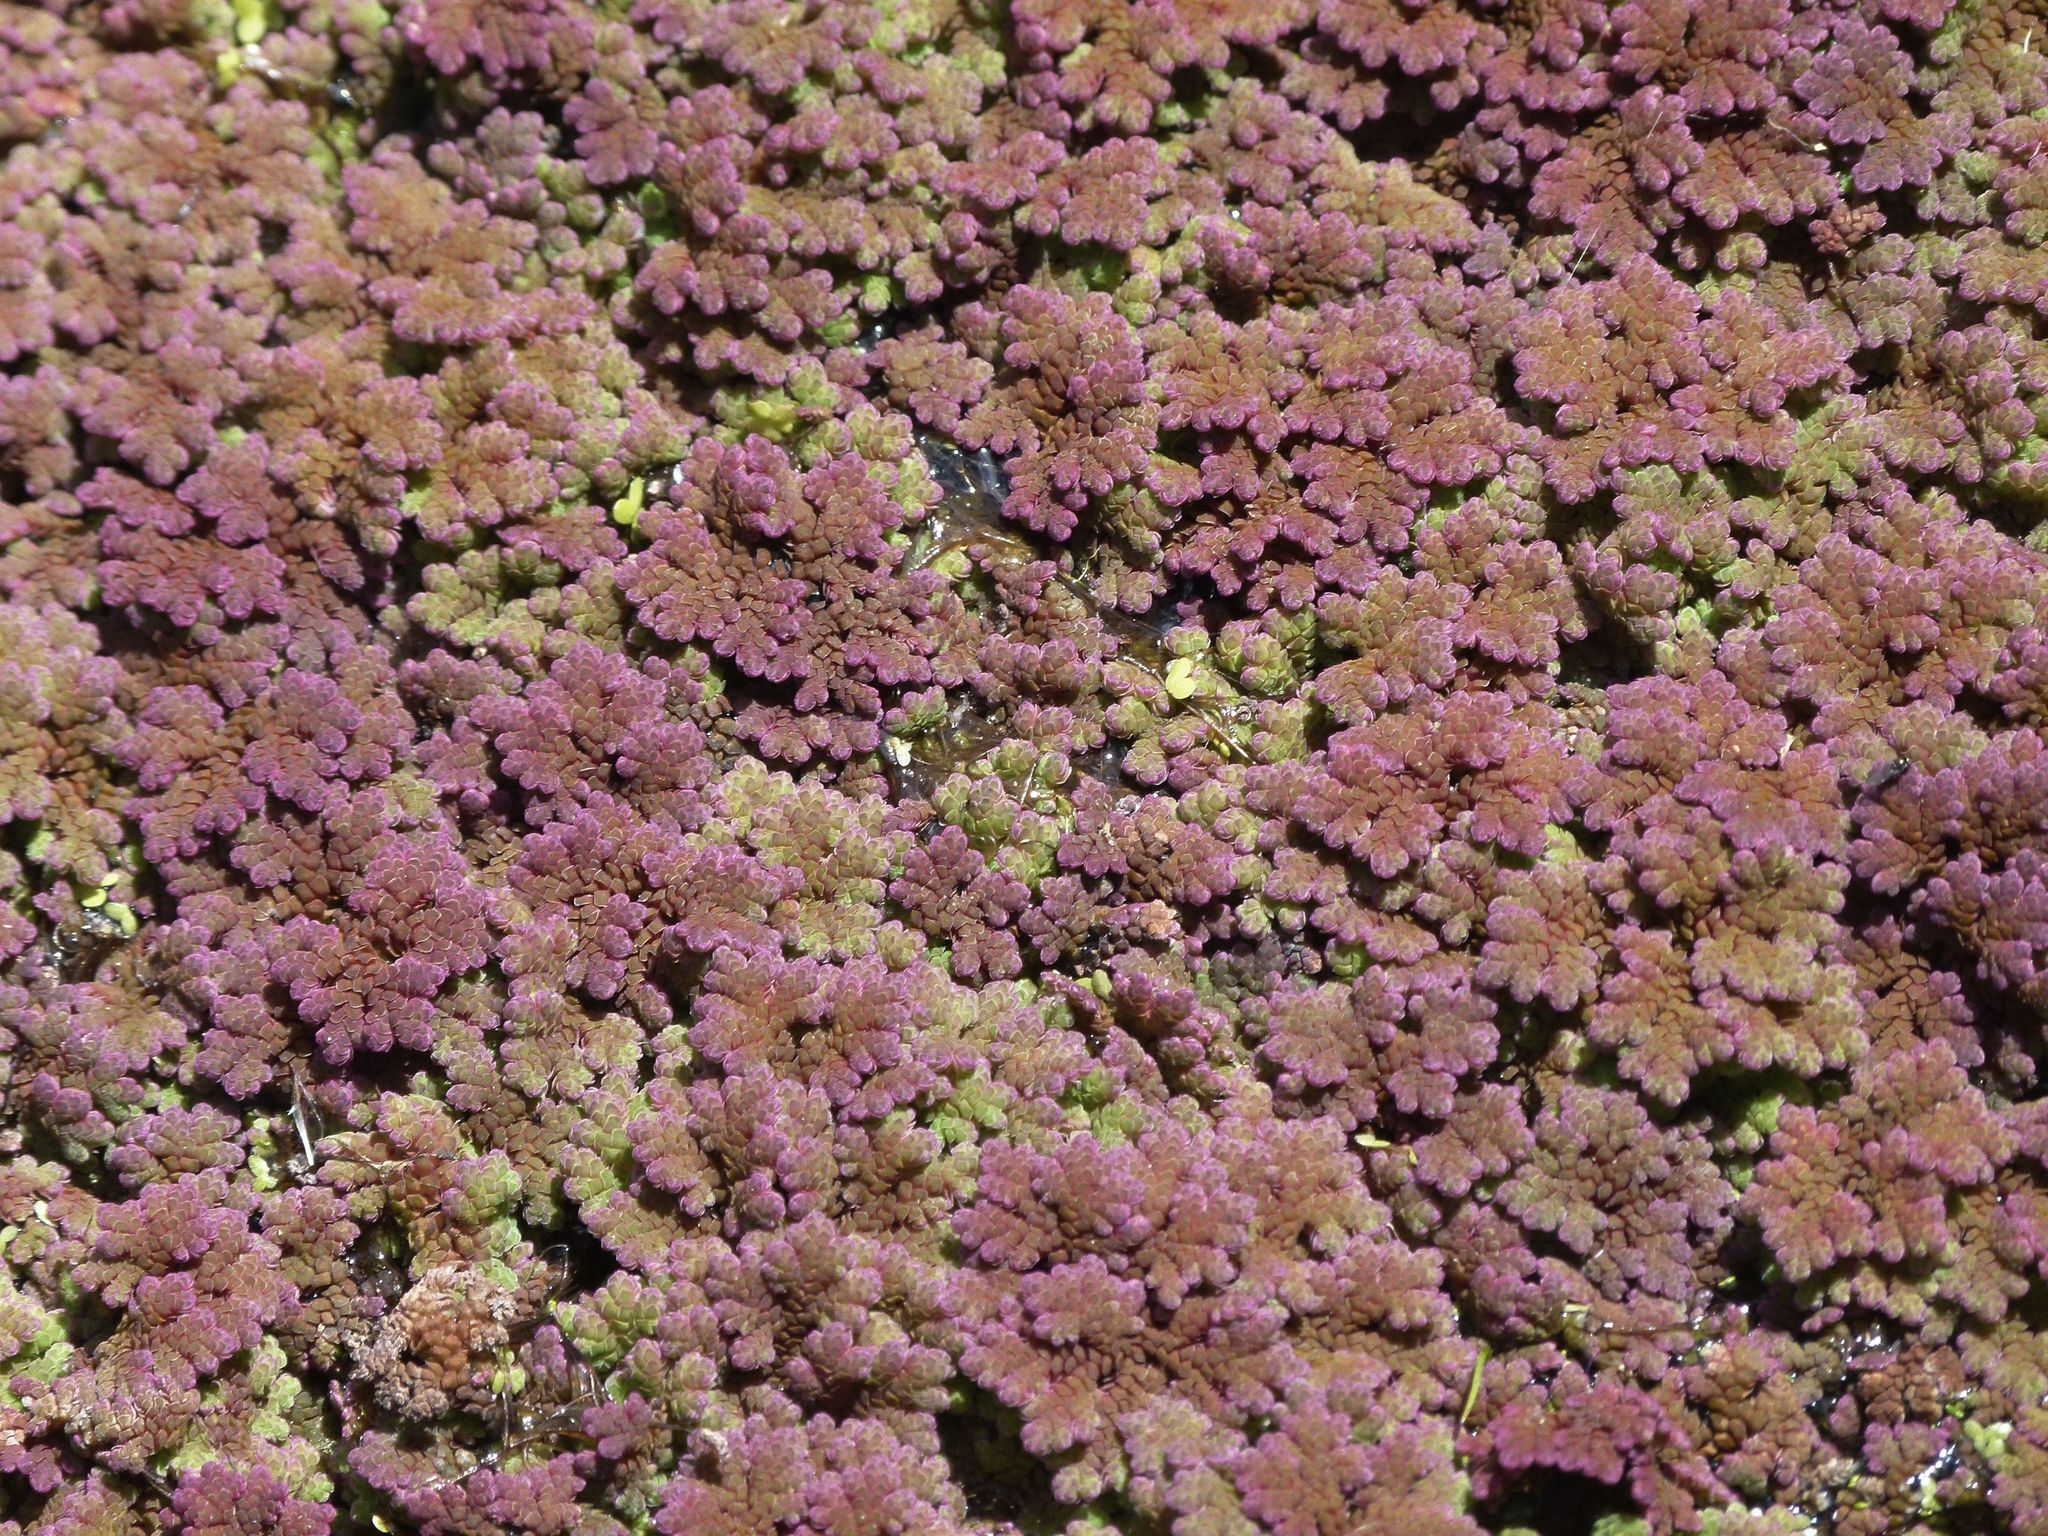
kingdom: Plantae
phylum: Tracheophyta
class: Polypodiopsida
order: Salviniales
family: Salviniaceae
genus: Azolla
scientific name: Azolla rubra
